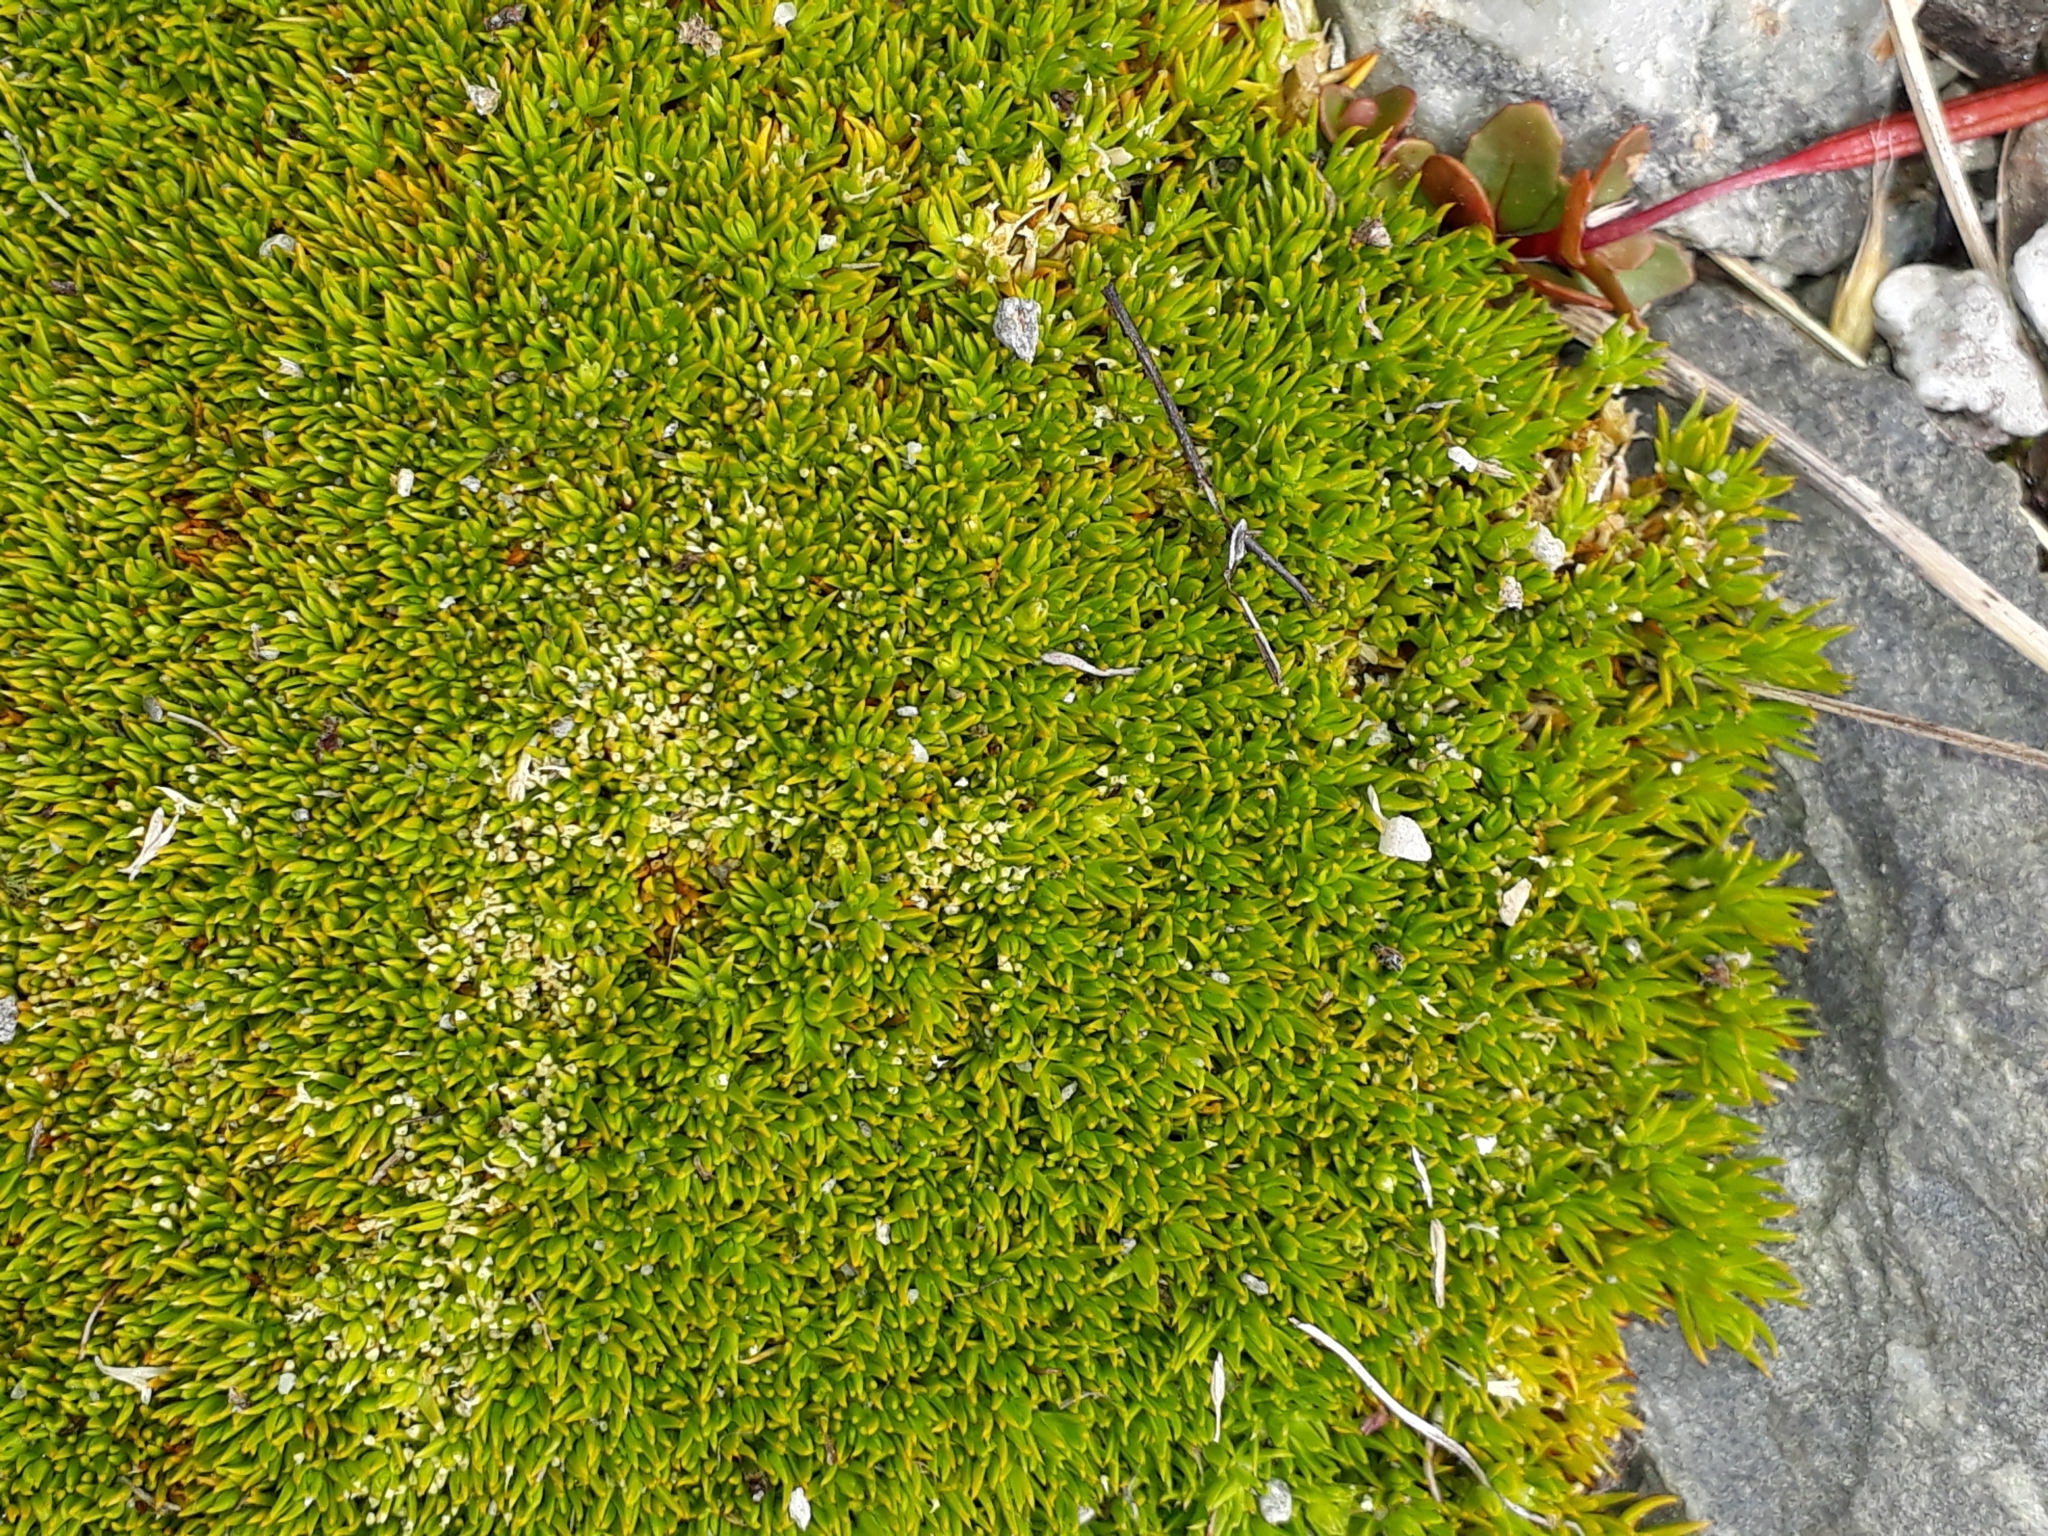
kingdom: Plantae
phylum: Tracheophyta
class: Magnoliopsida
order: Caryophyllales
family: Caryophyllaceae
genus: Scleranthus
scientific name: Scleranthus uniflorus
